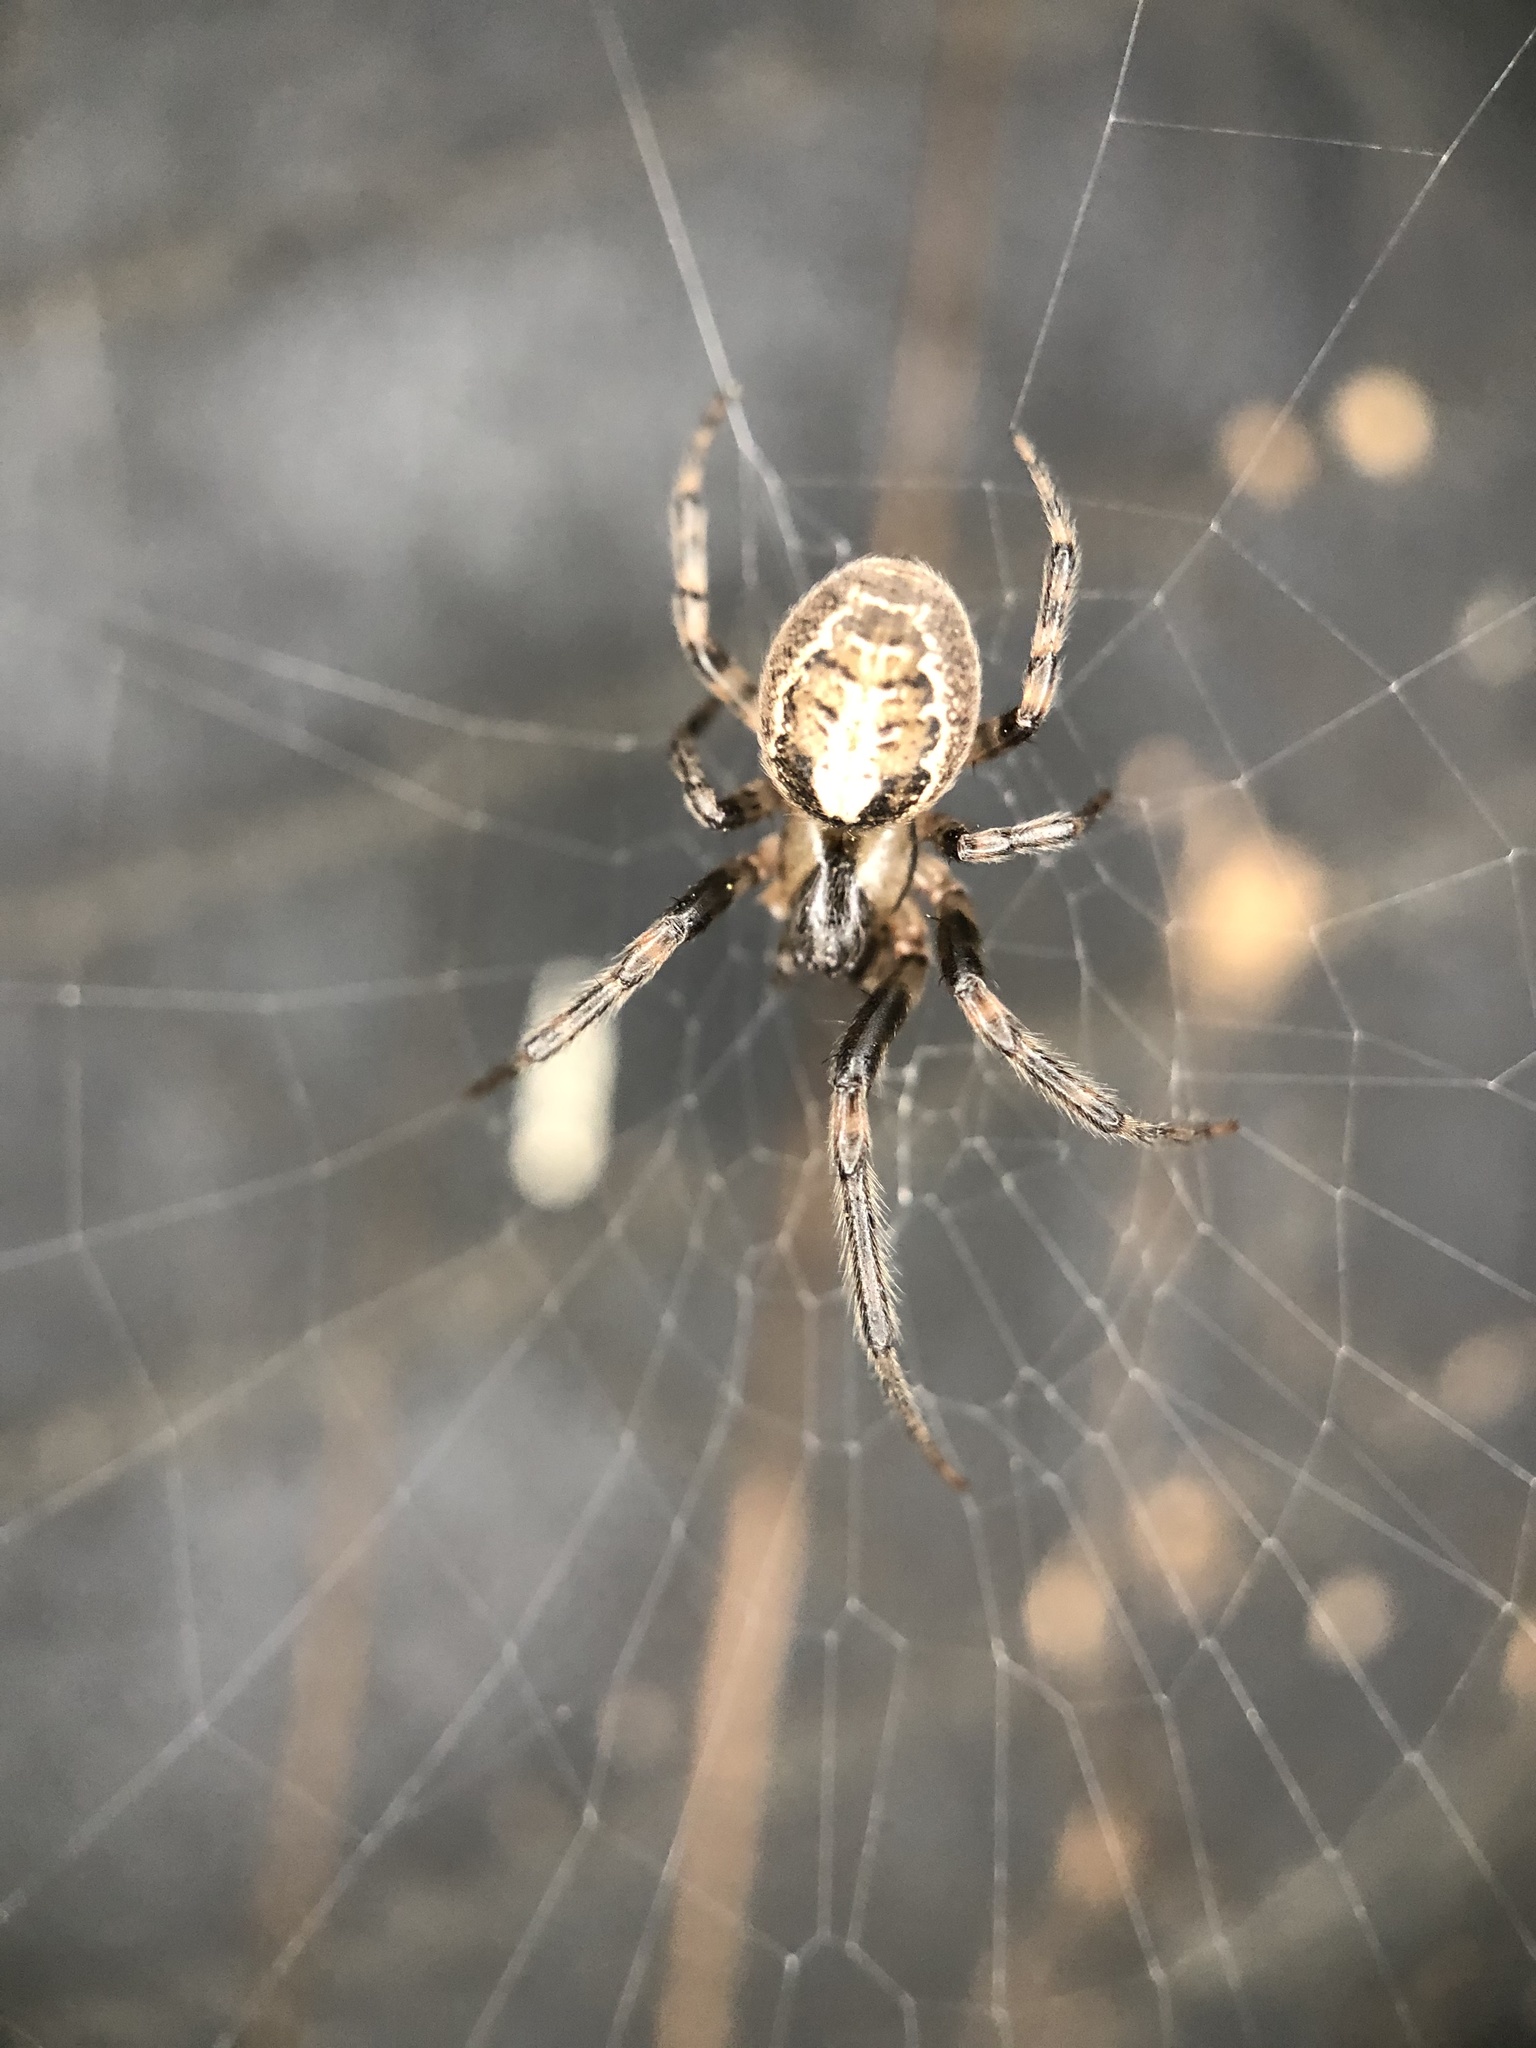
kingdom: Animalia
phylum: Arthropoda
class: Arachnida
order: Araneae
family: Araneidae
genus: Zygiella
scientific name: Zygiella x-notata
